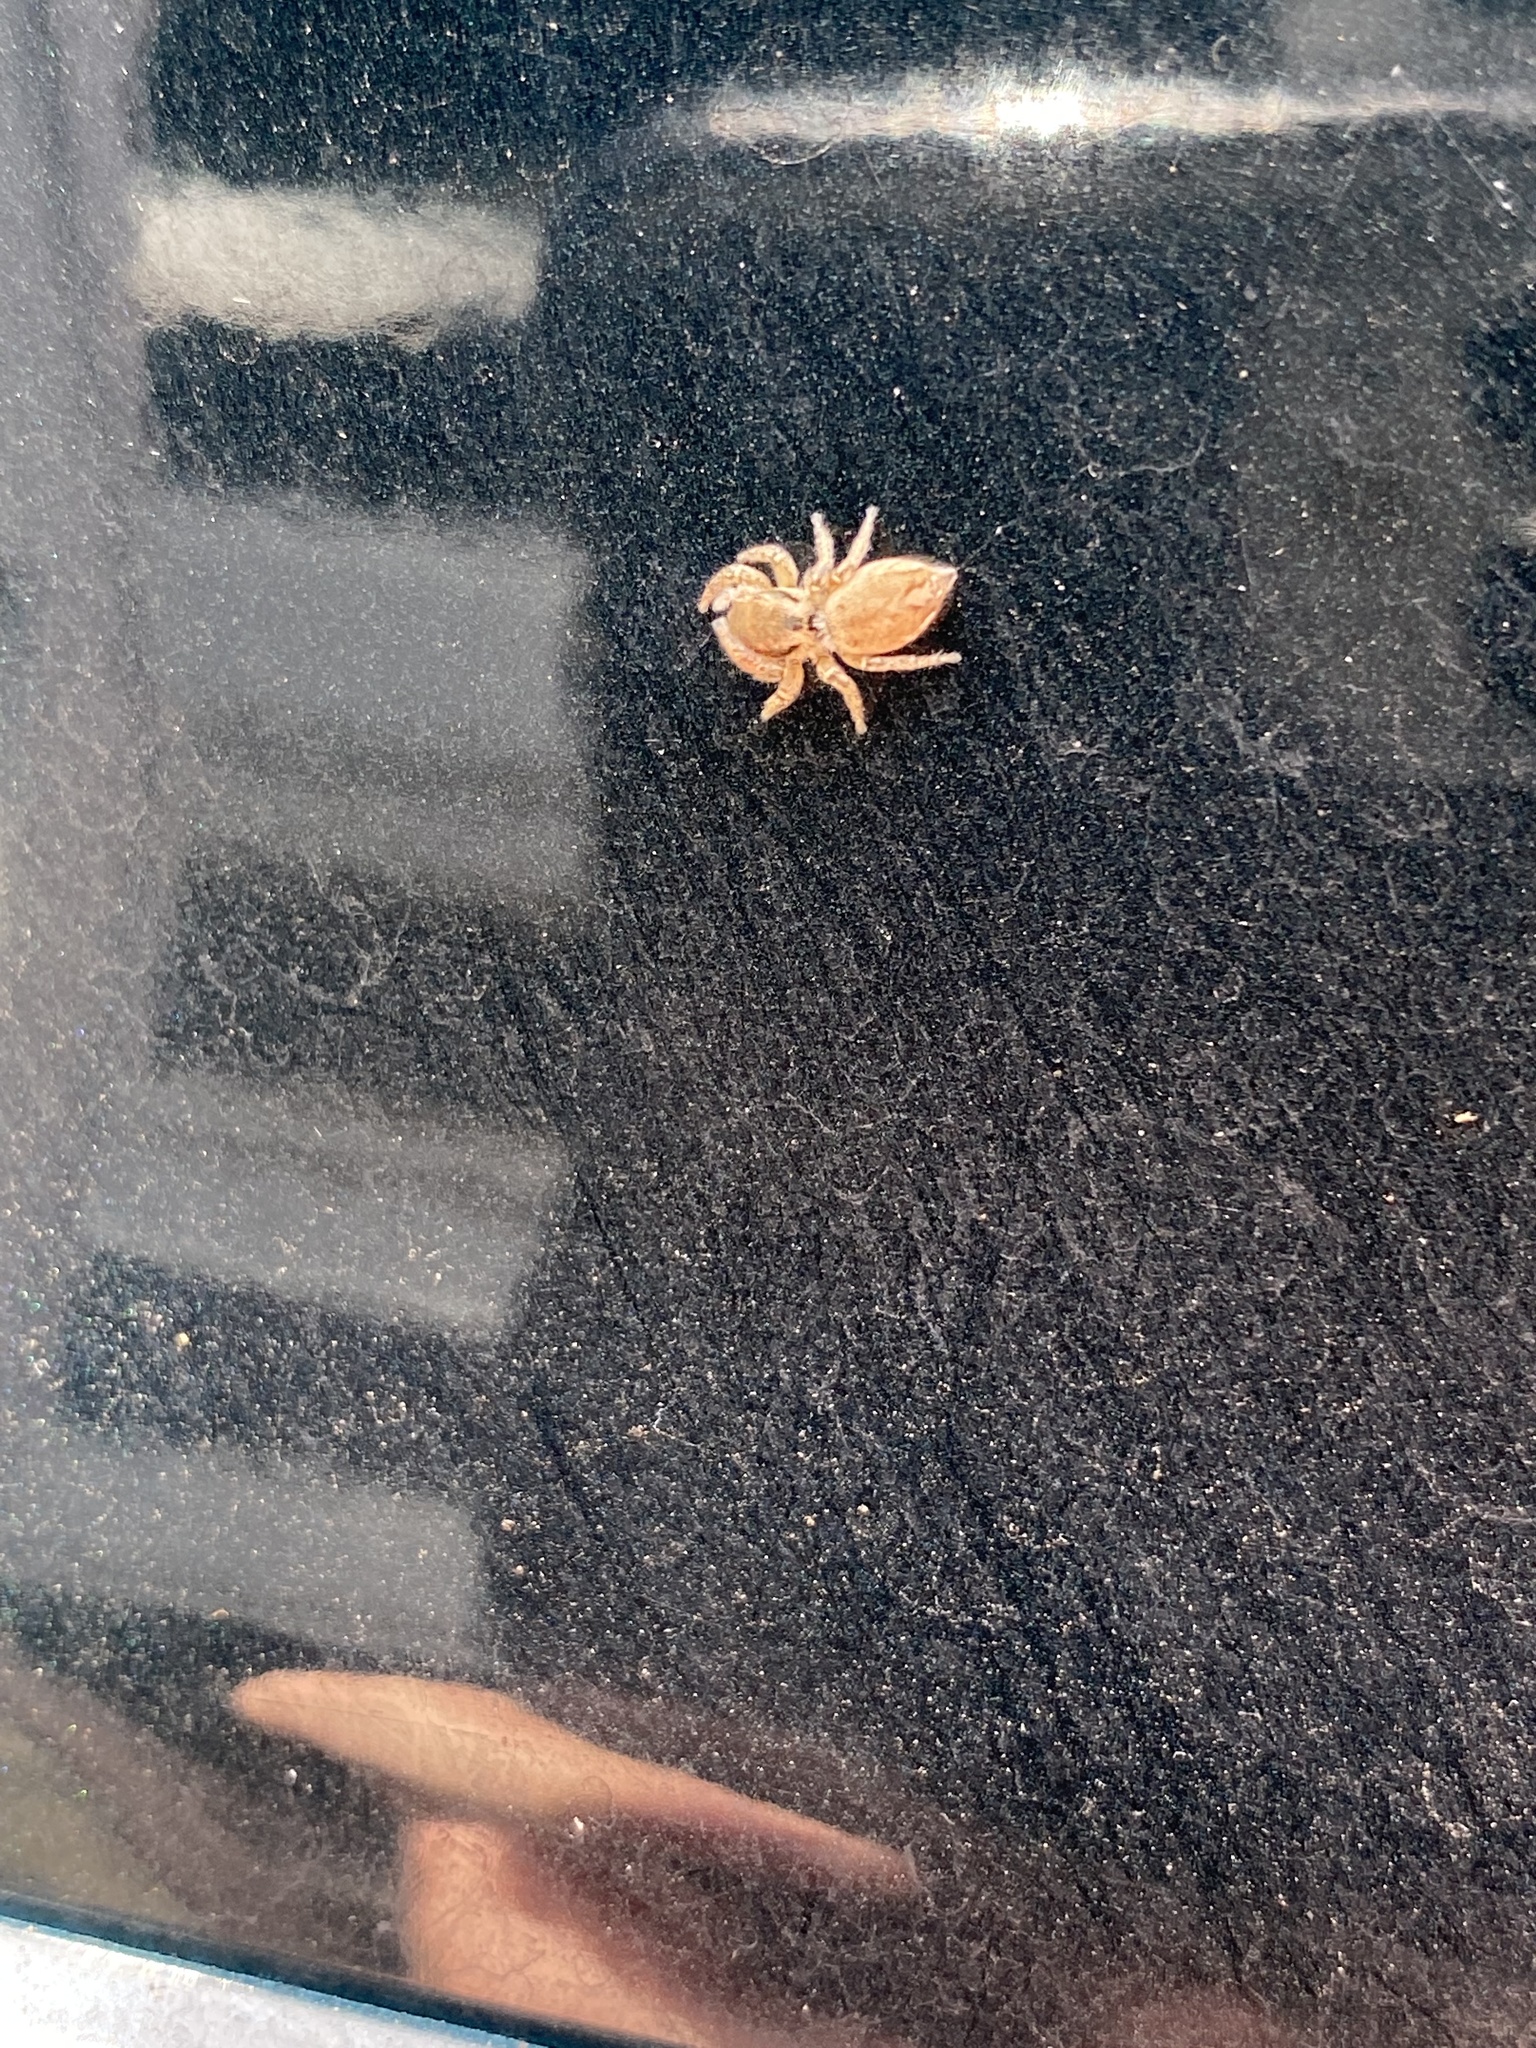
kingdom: Animalia
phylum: Arthropoda
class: Arachnida
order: Araneae
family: Salticidae
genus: Habronattus
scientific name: Habronattus pyrrithrix
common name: Jumping spider
